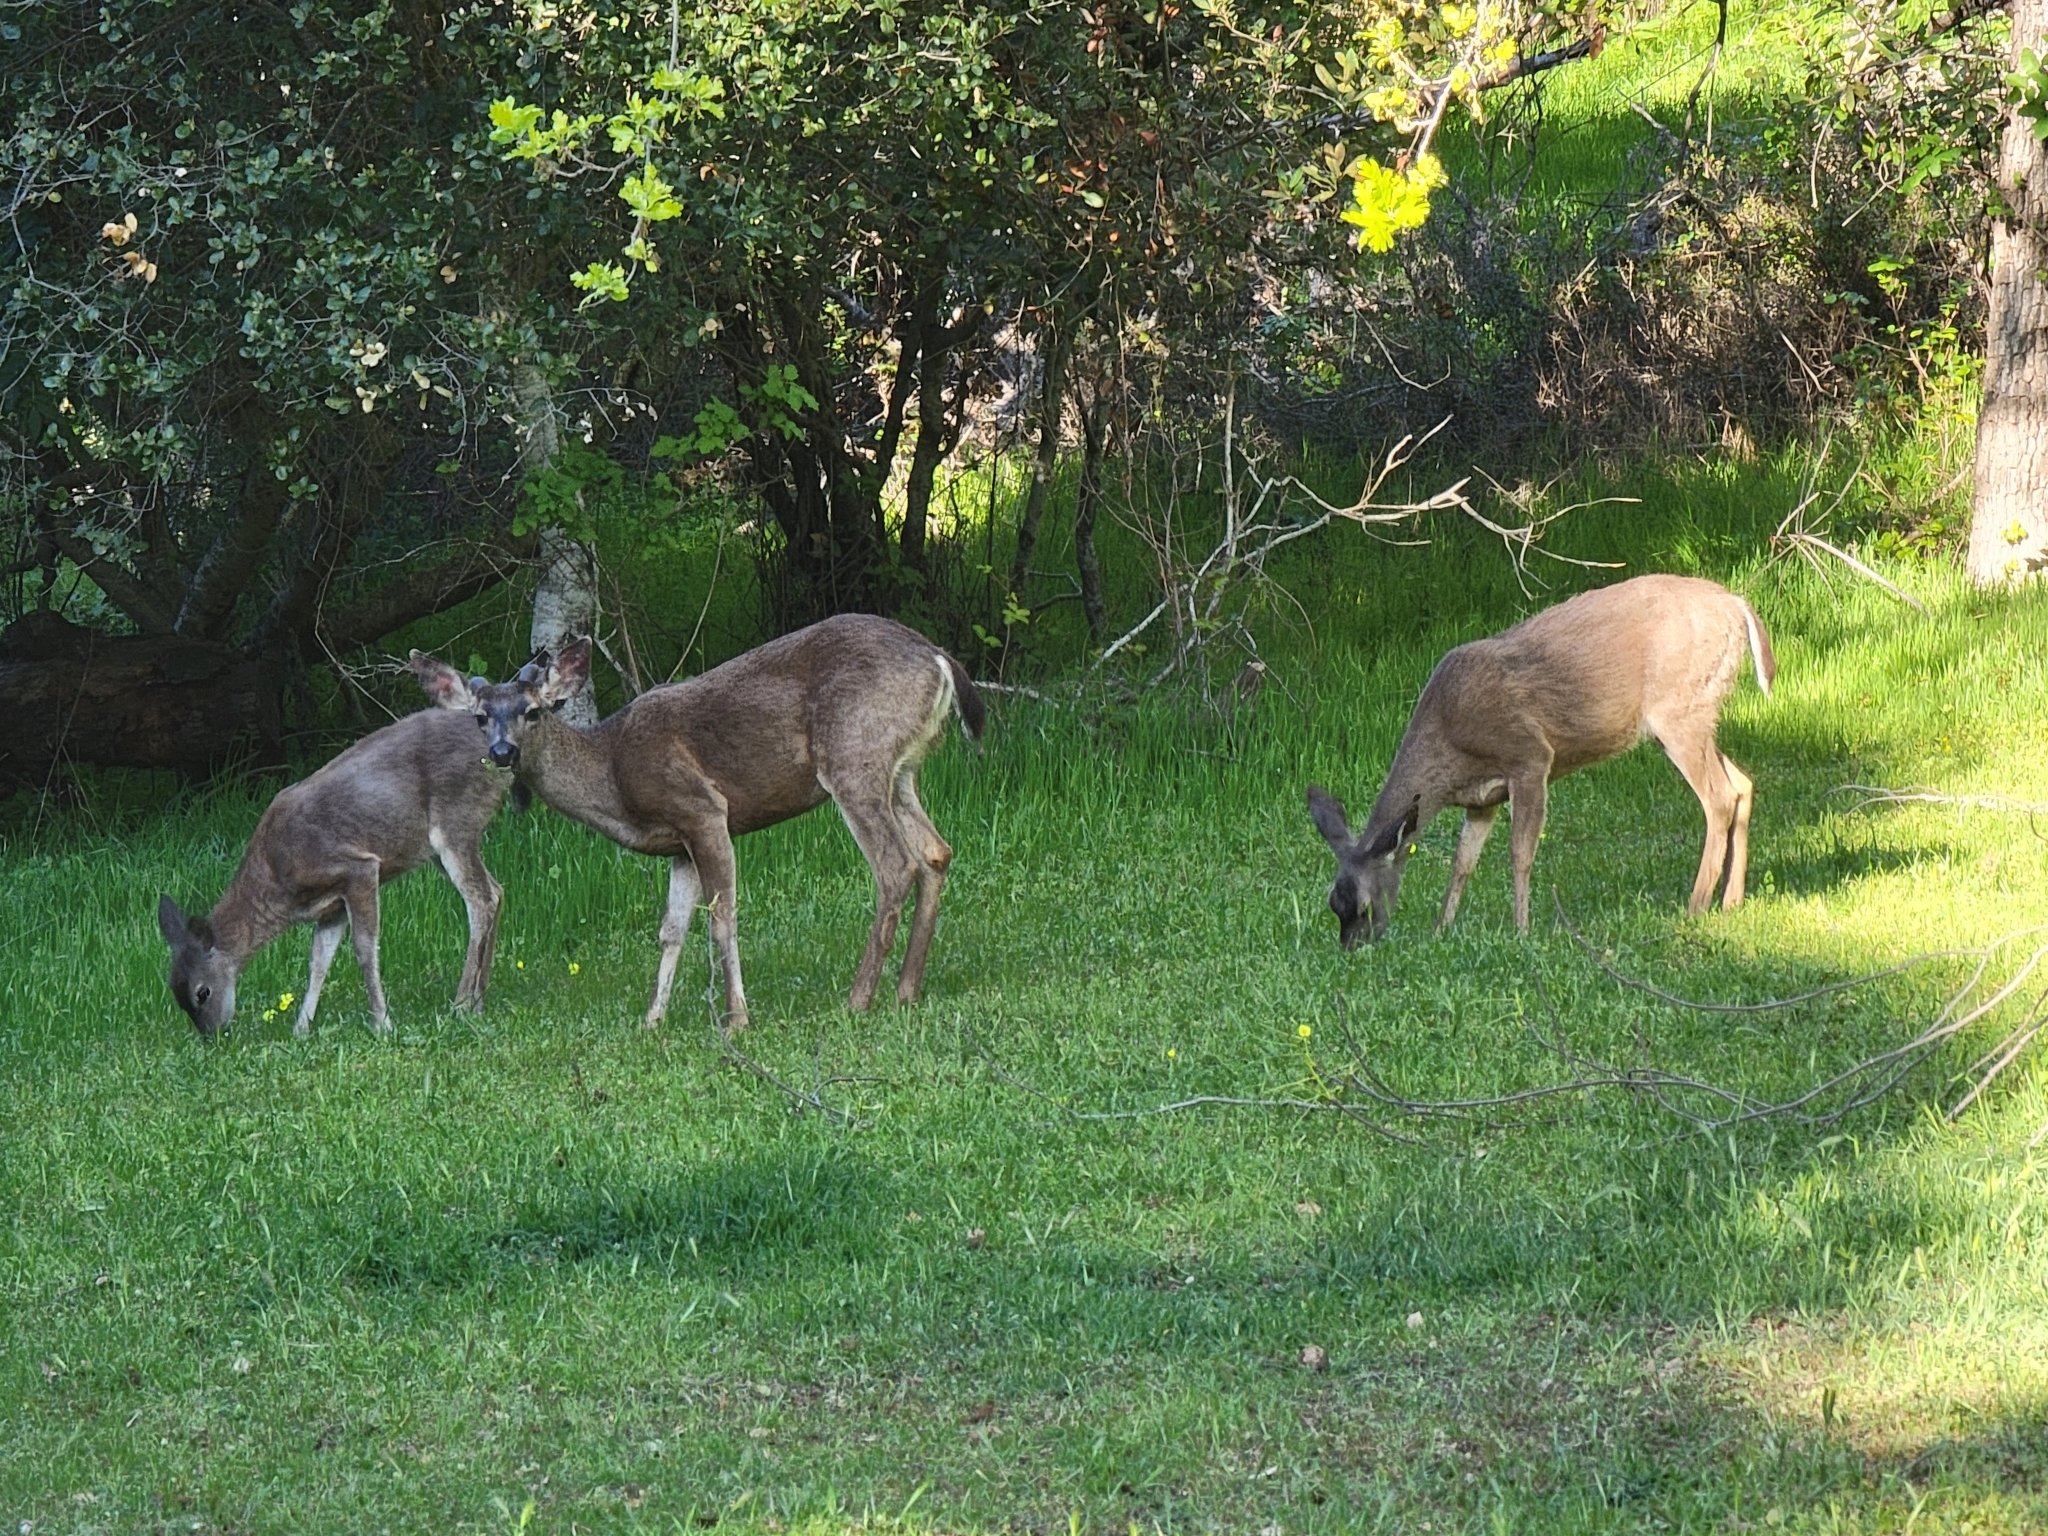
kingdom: Animalia
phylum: Chordata
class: Mammalia
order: Artiodactyla
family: Cervidae
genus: Odocoileus
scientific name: Odocoileus hemionus
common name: Mule deer
